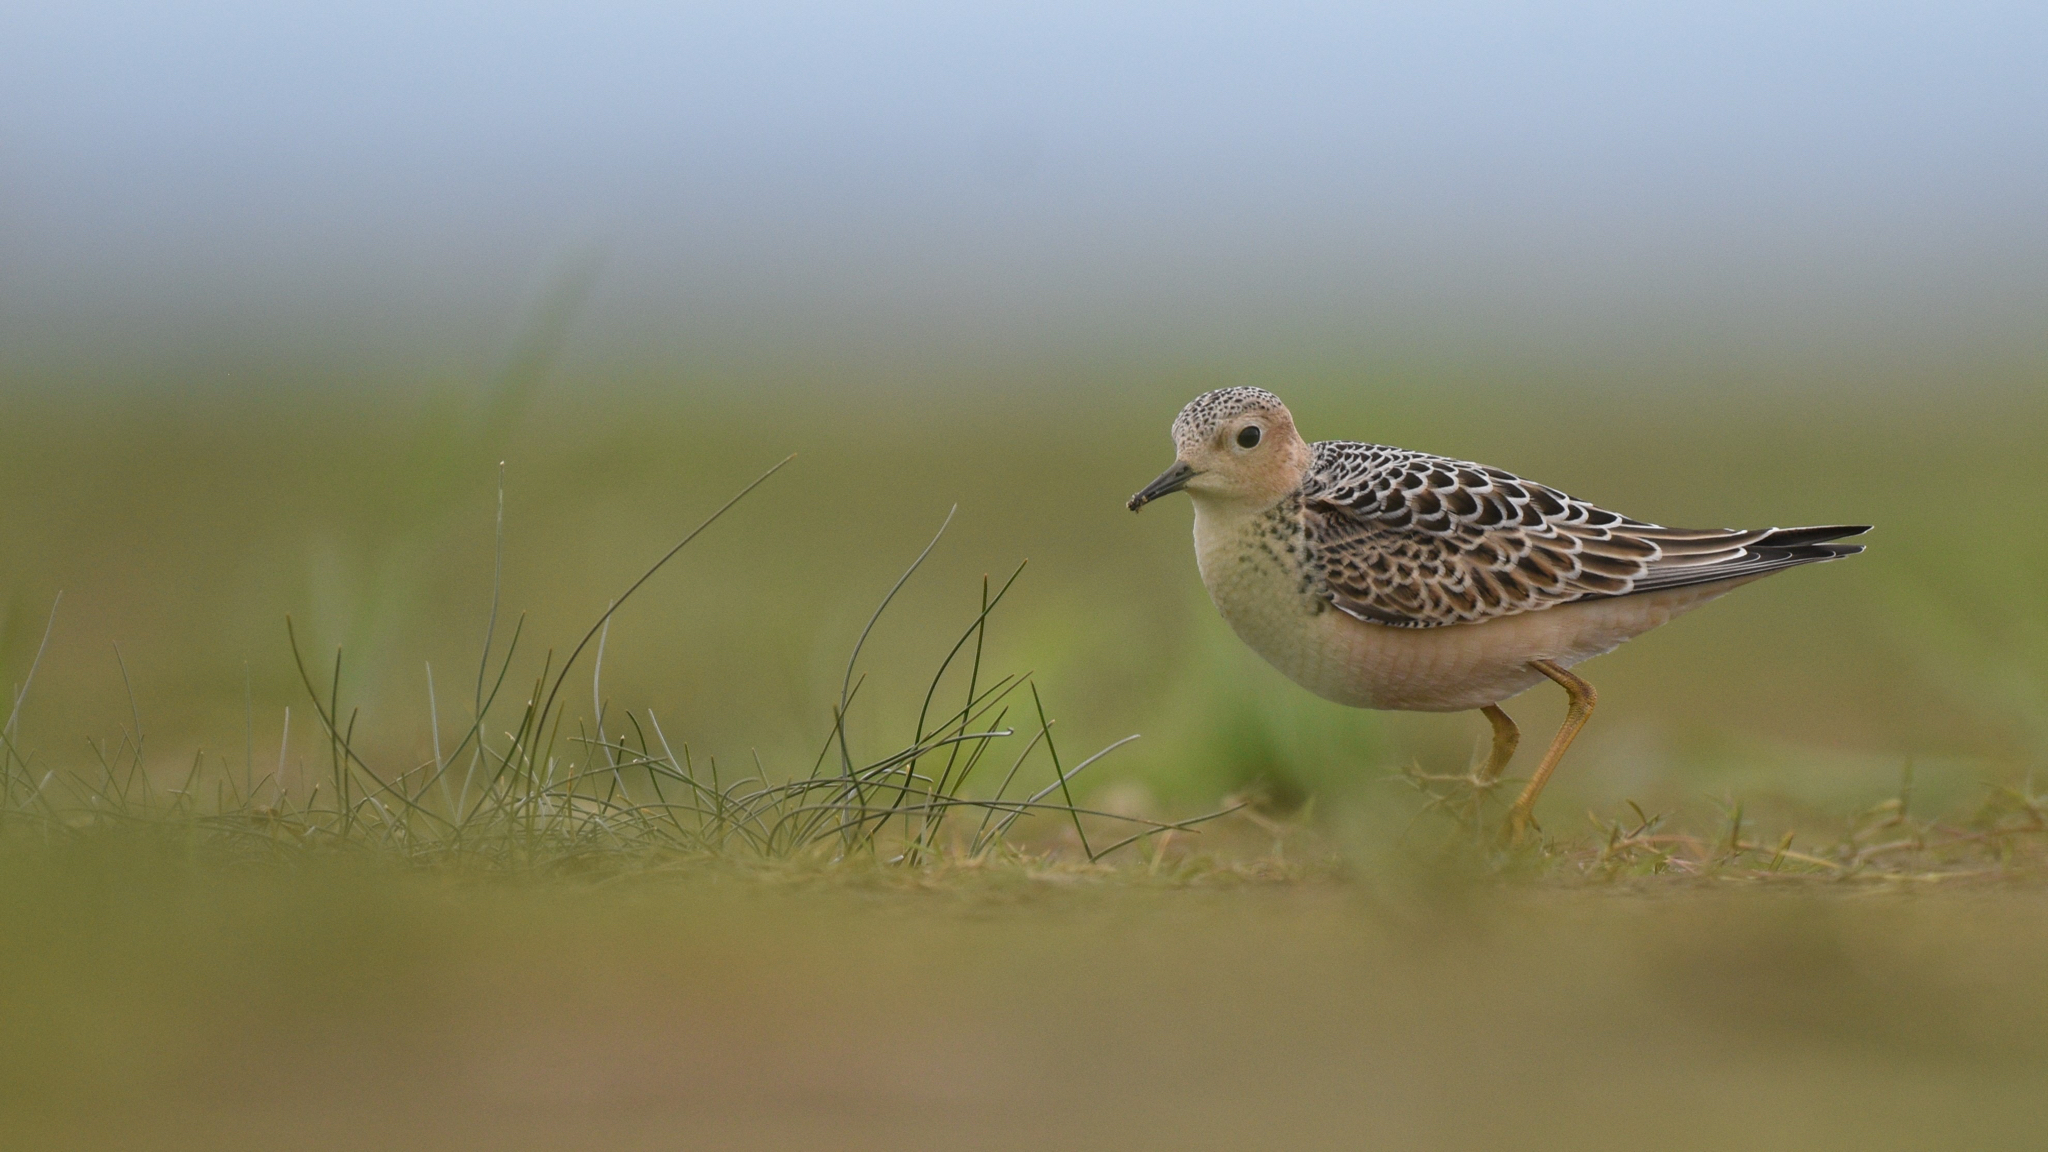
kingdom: Animalia
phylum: Chordata
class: Aves
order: Charadriiformes
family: Scolopacidae
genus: Calidris
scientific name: Calidris subruficollis
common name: Buff-breasted sandpiper
